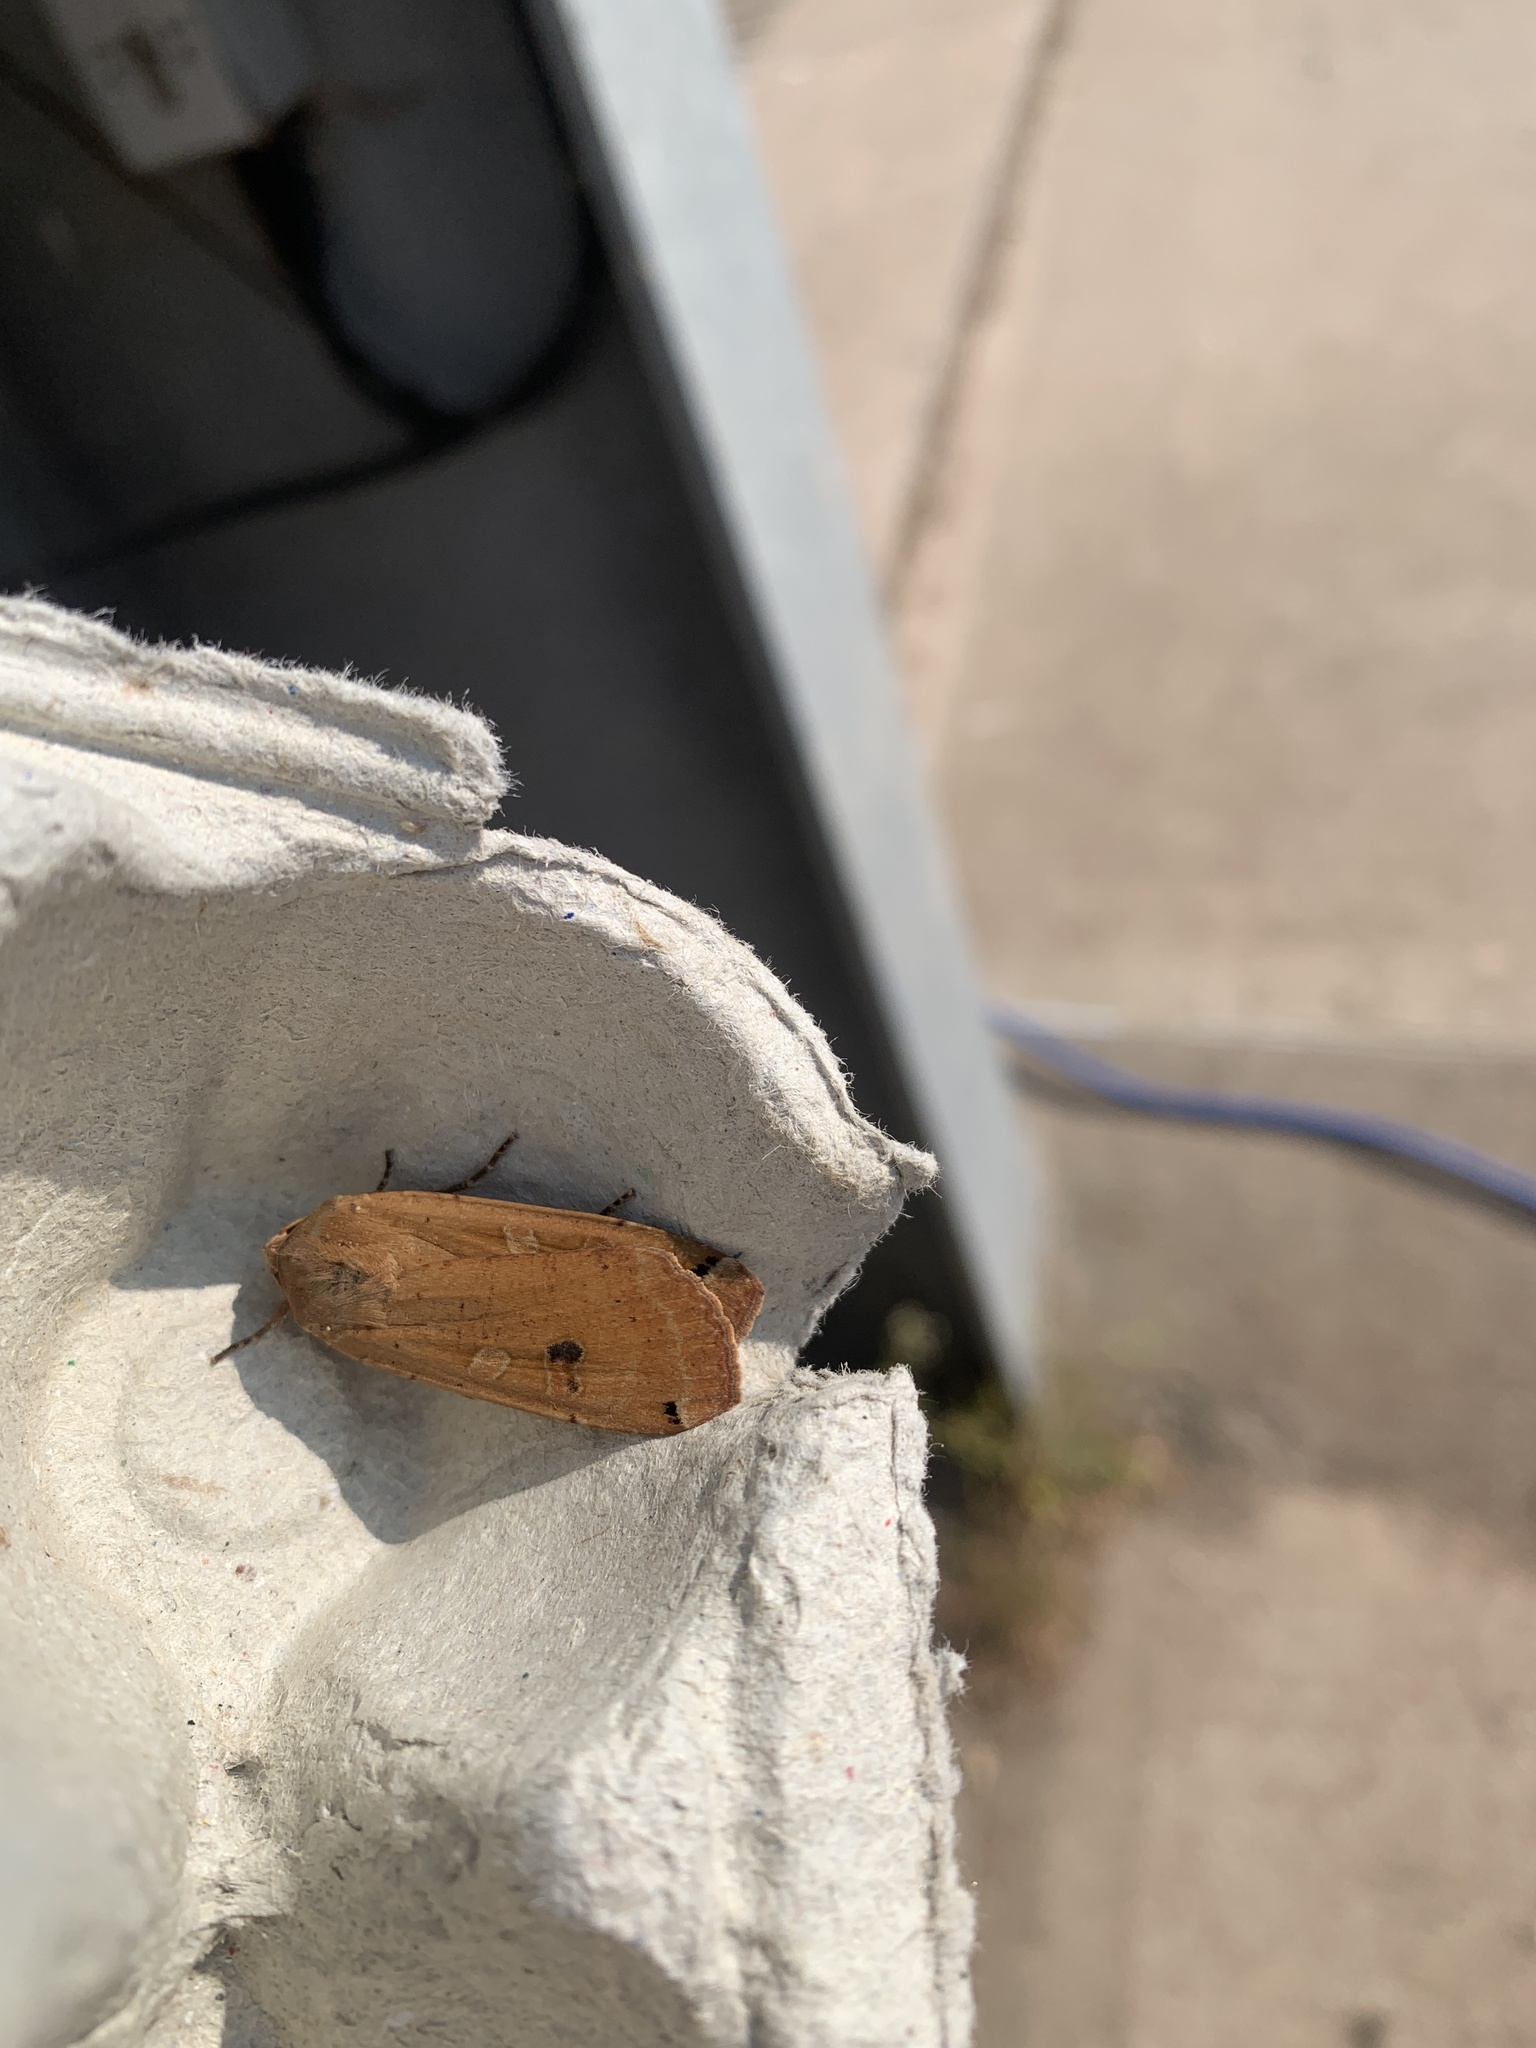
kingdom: Animalia
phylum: Arthropoda
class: Insecta
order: Lepidoptera
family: Noctuidae
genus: Noctua
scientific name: Noctua pronuba
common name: Large yellow underwing
